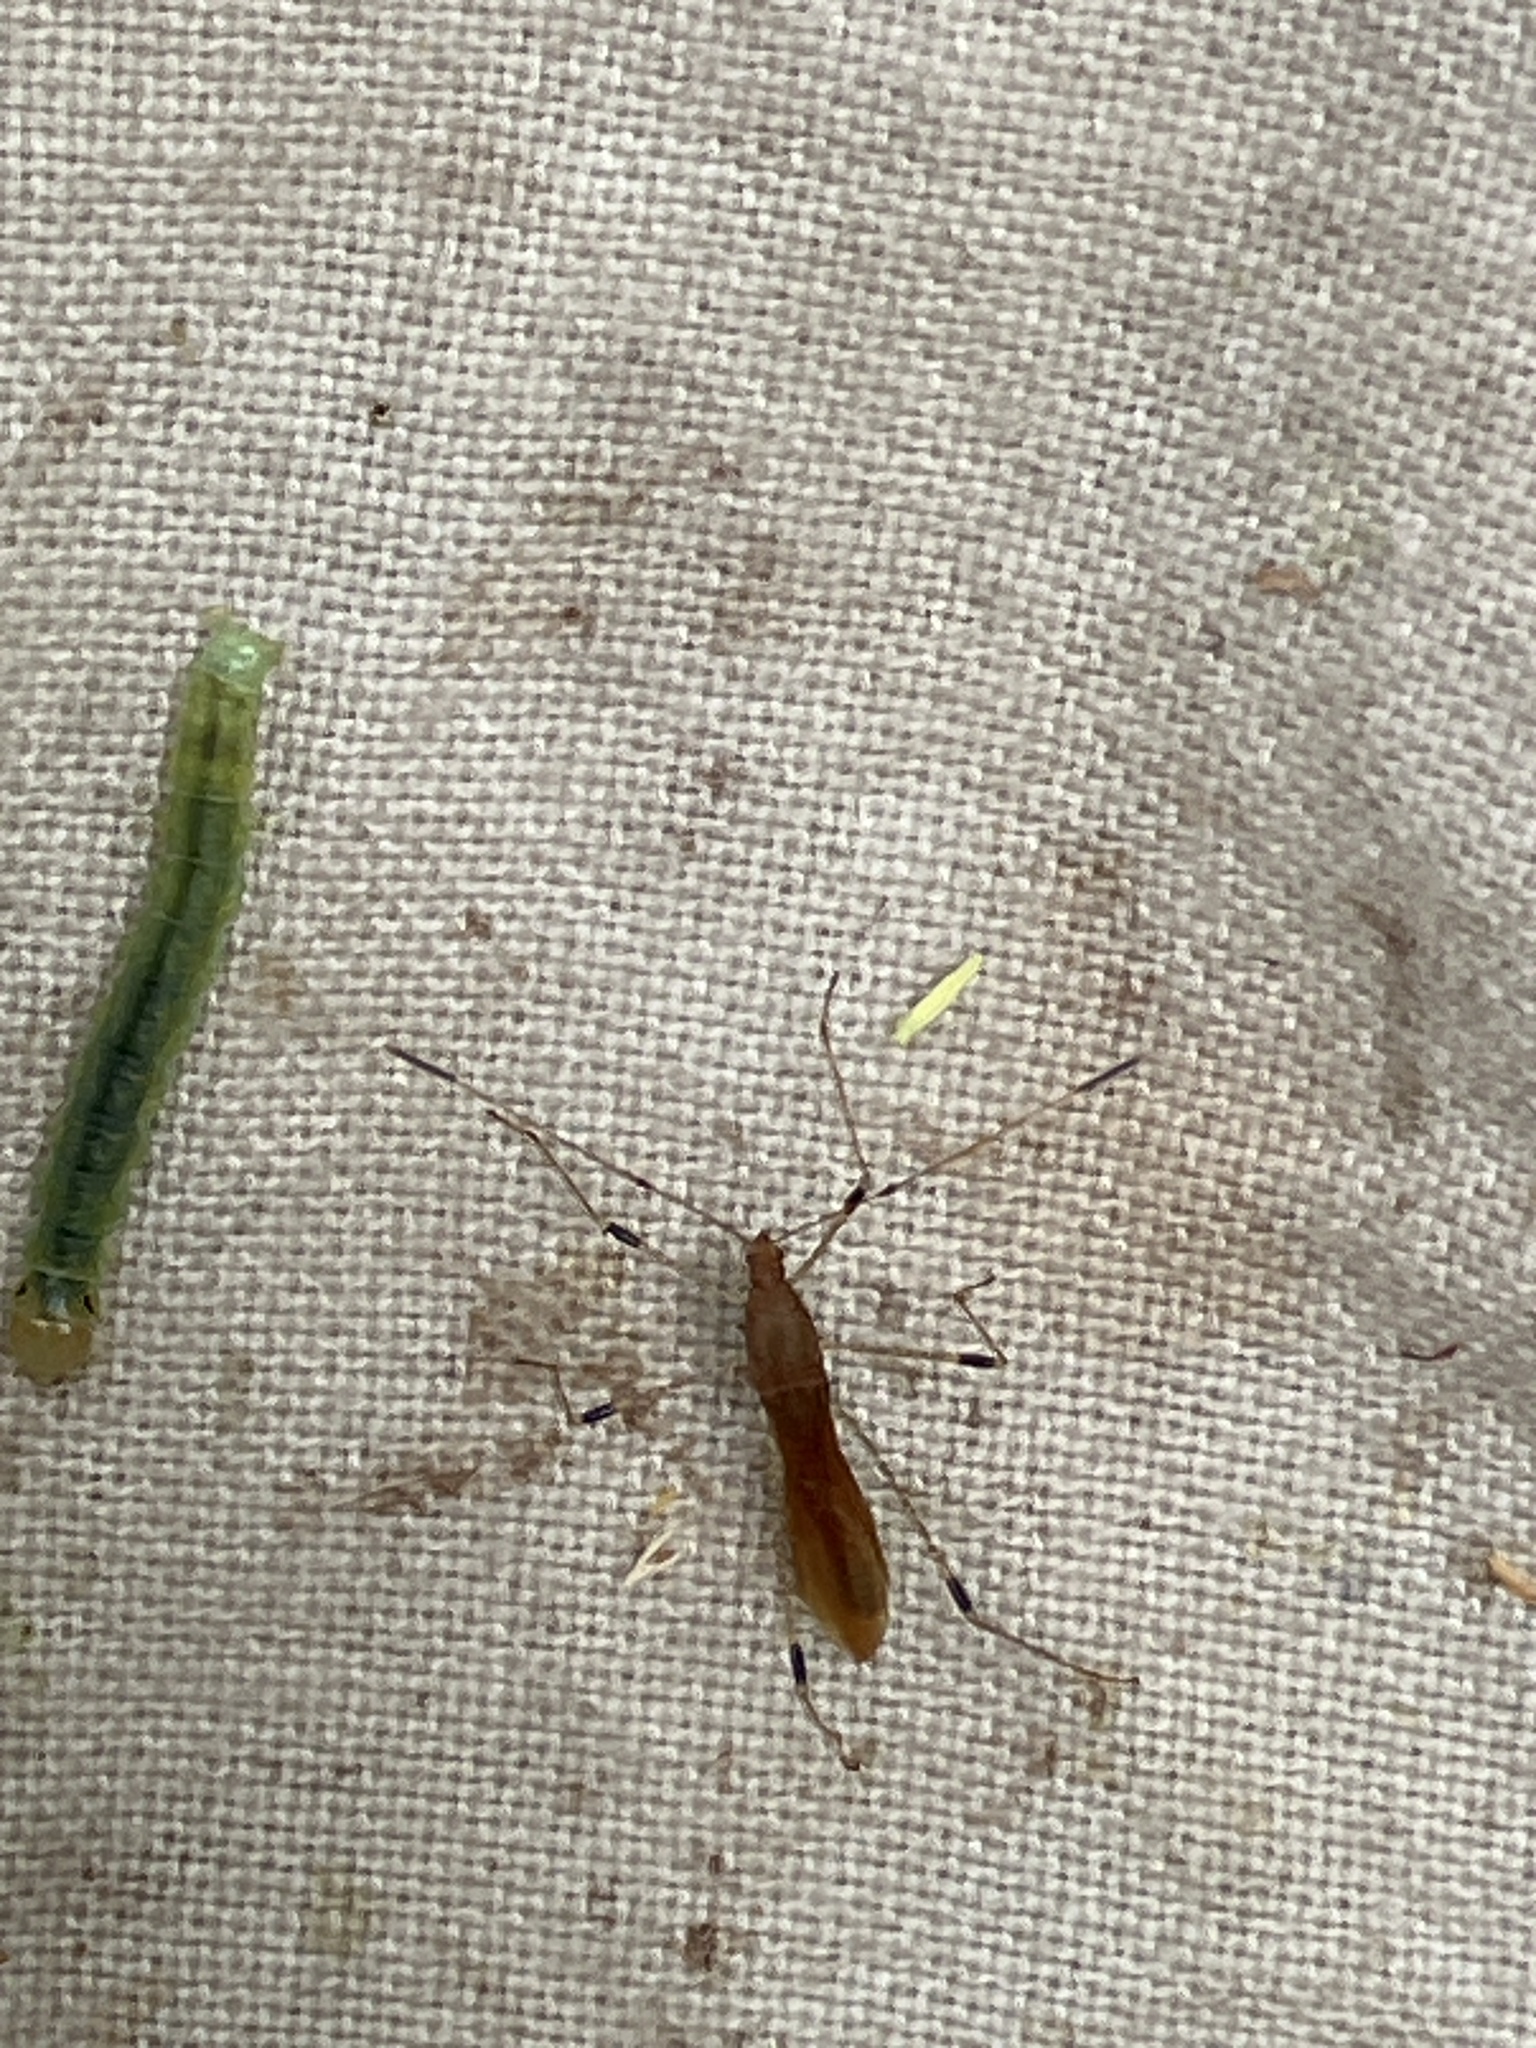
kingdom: Animalia
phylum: Arthropoda
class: Insecta
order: Hemiptera
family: Berytidae
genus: Metatropis
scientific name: Metatropis rufescens
